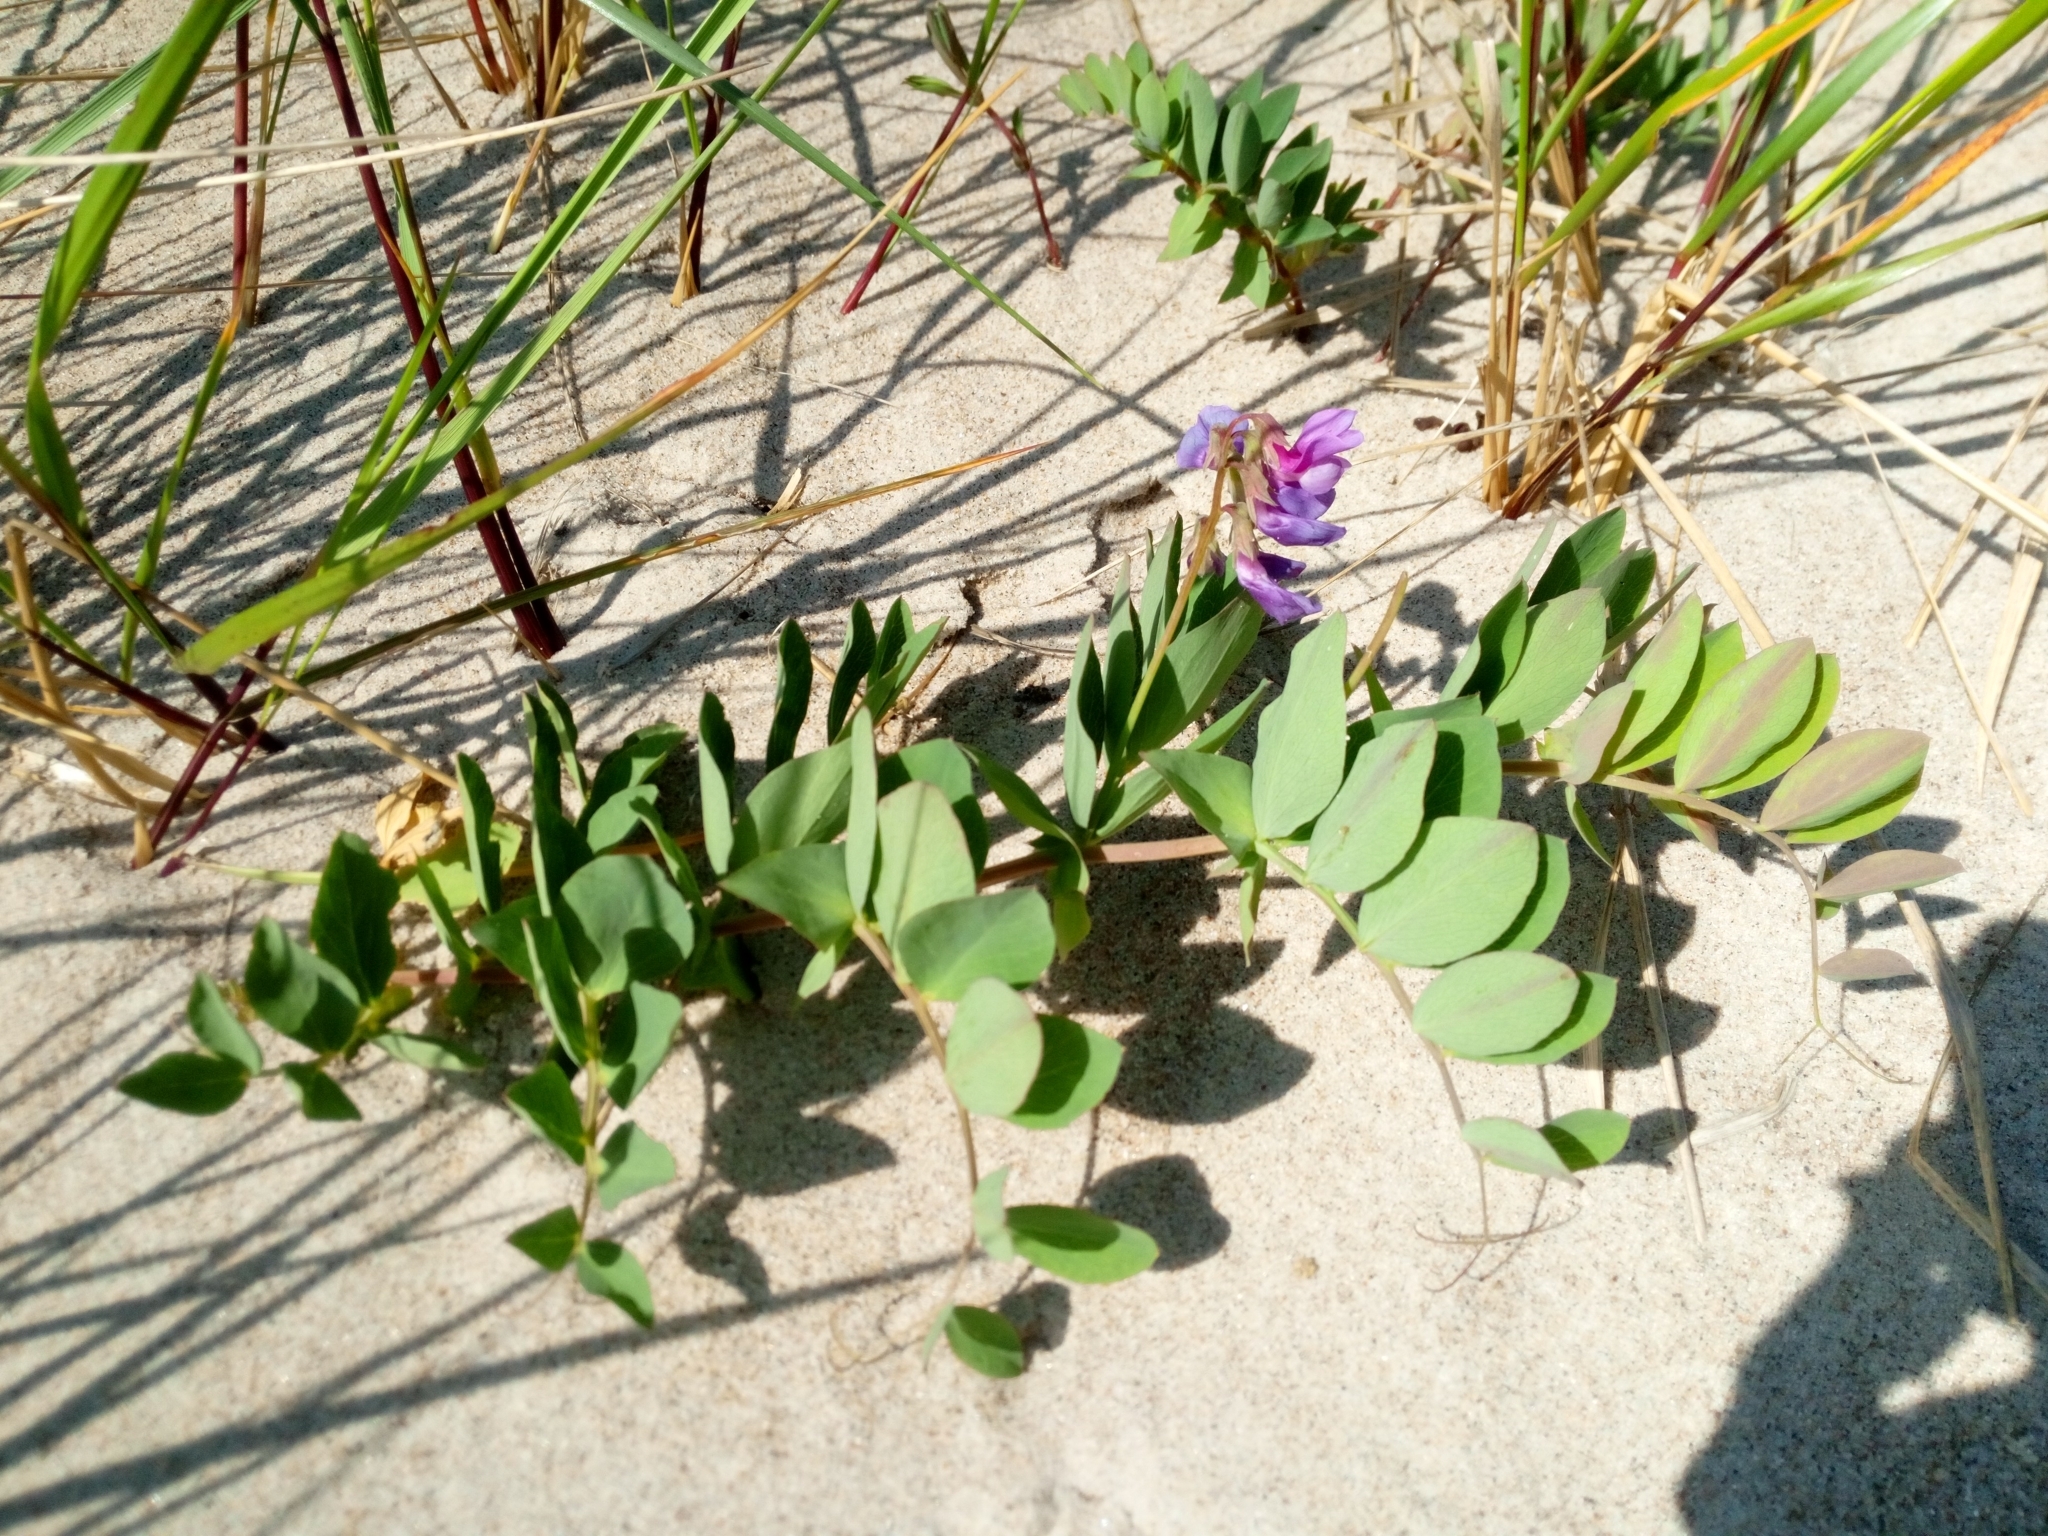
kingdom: Plantae
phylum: Tracheophyta
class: Magnoliopsida
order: Fabales
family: Fabaceae
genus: Lathyrus
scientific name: Lathyrus japonicus
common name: Sea pea
